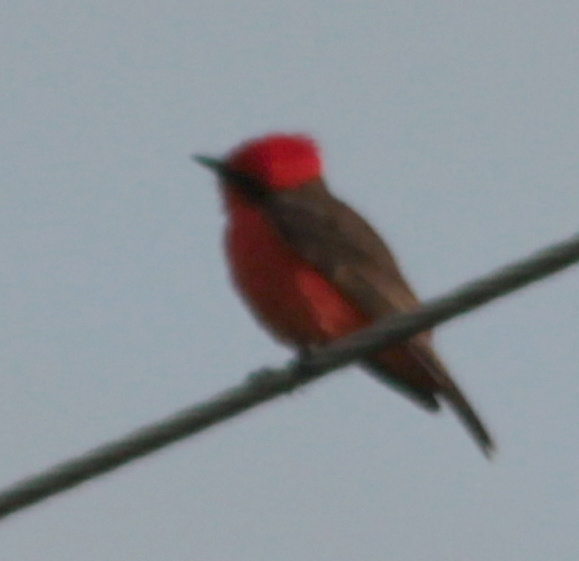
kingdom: Animalia
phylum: Chordata
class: Aves
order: Passeriformes
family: Tyrannidae
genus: Pyrocephalus
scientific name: Pyrocephalus rubinus
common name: Vermilion flycatcher
